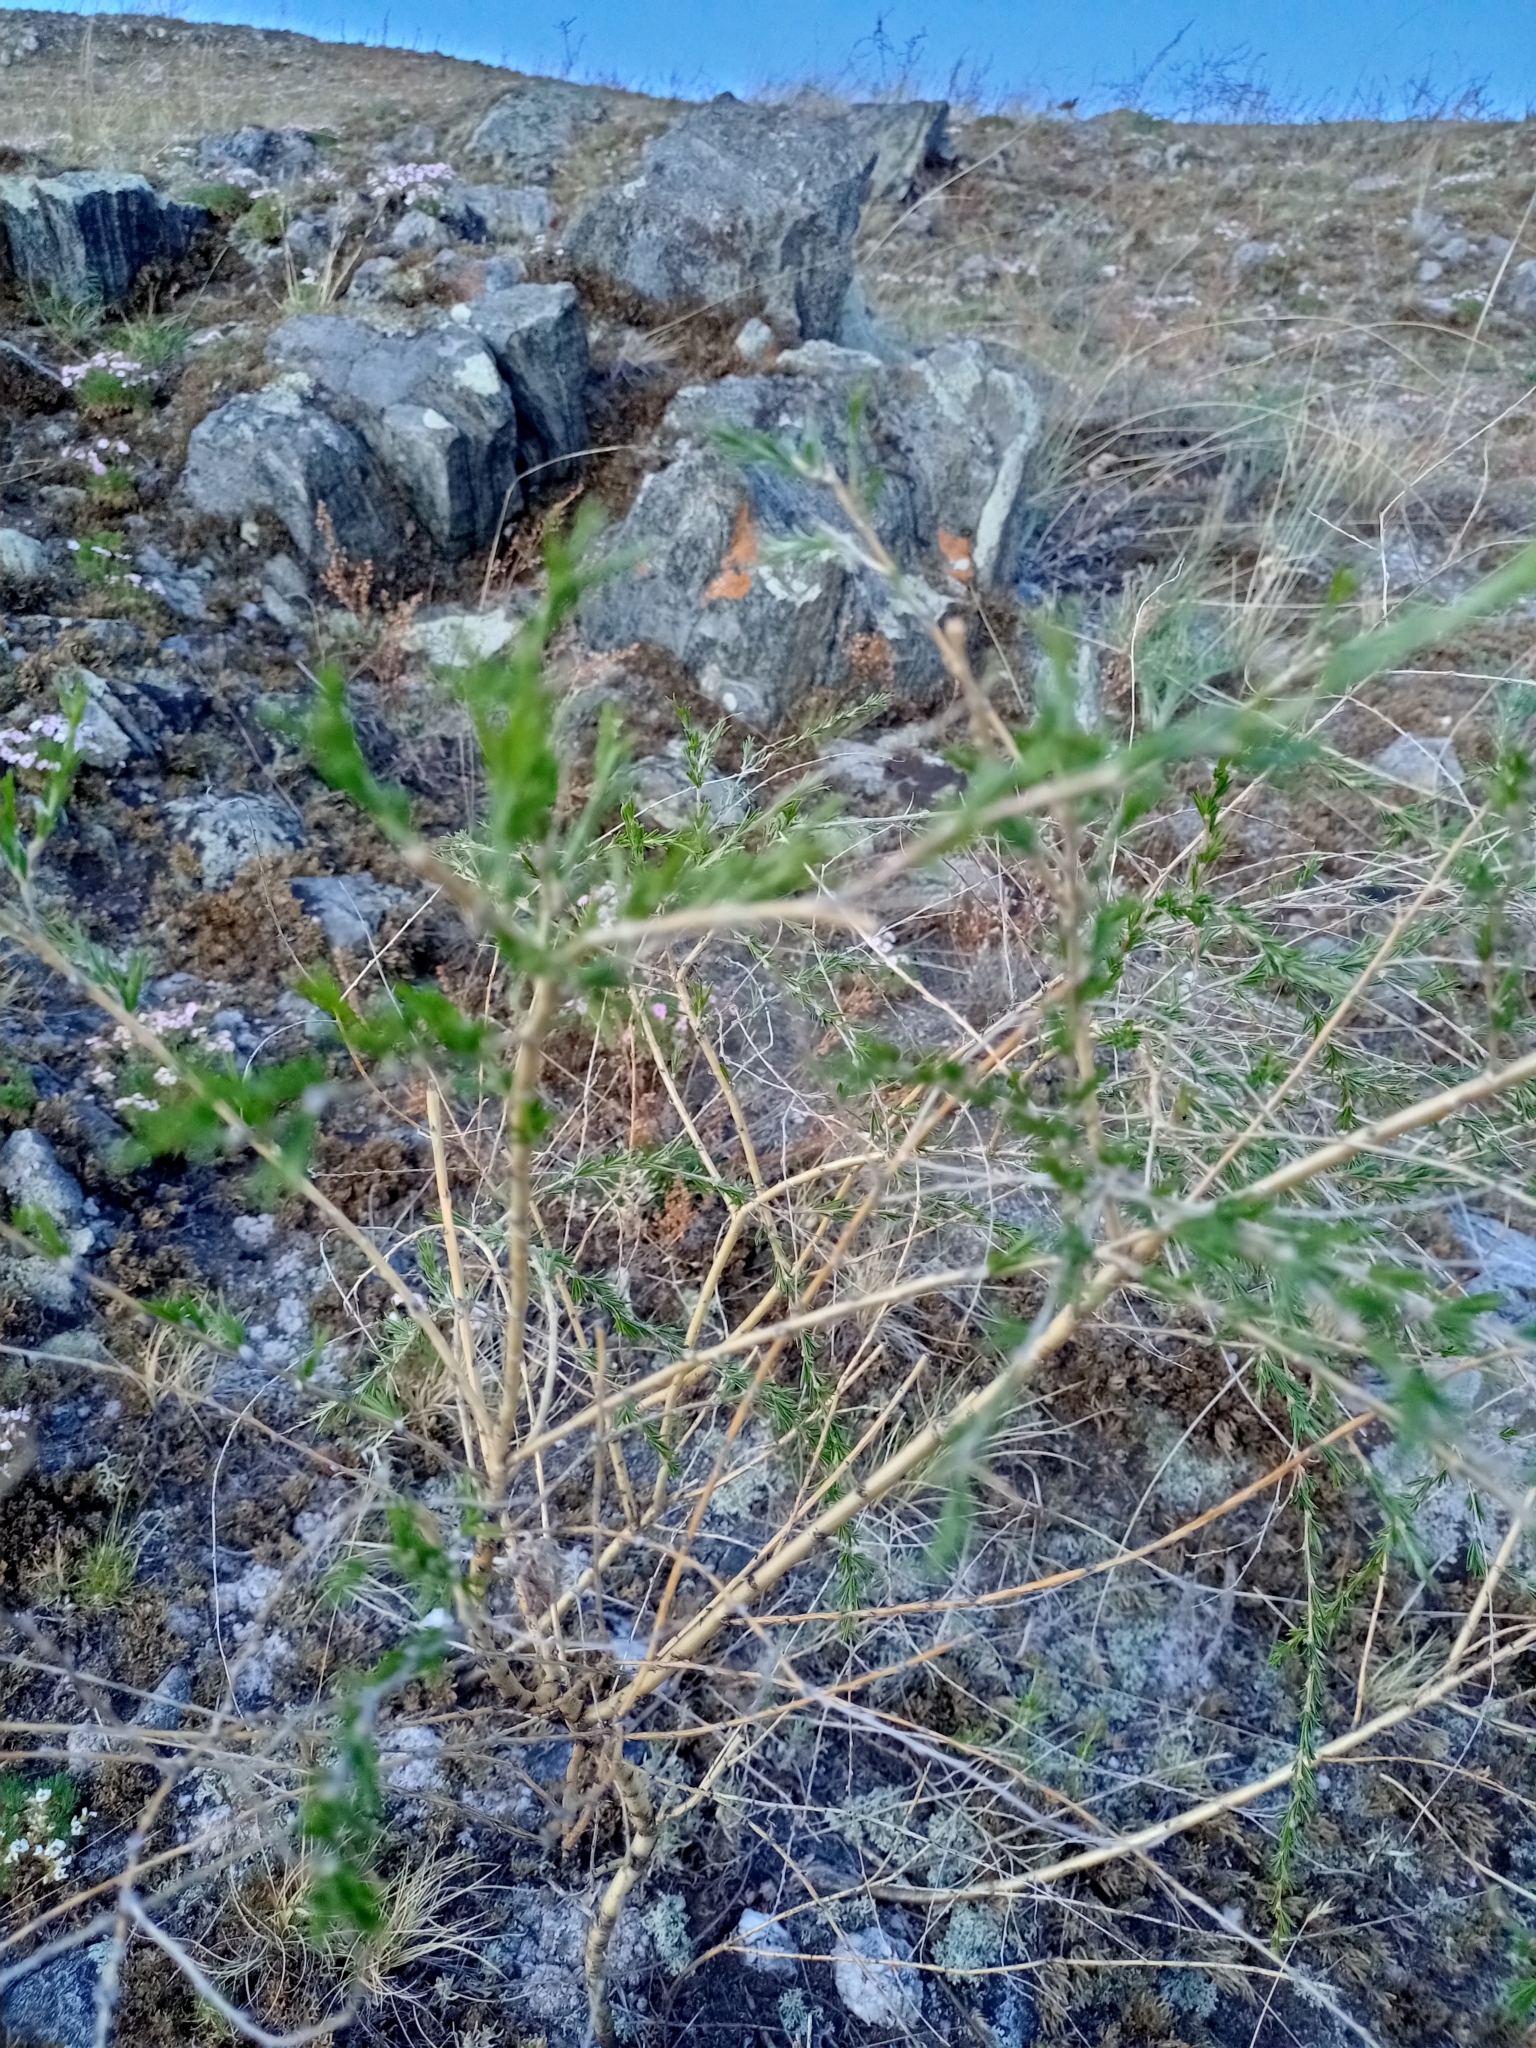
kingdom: Plantae
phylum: Tracheophyta
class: Magnoliopsida
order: Fabales
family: Fabaceae
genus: Caragana
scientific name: Caragana pygmaea
